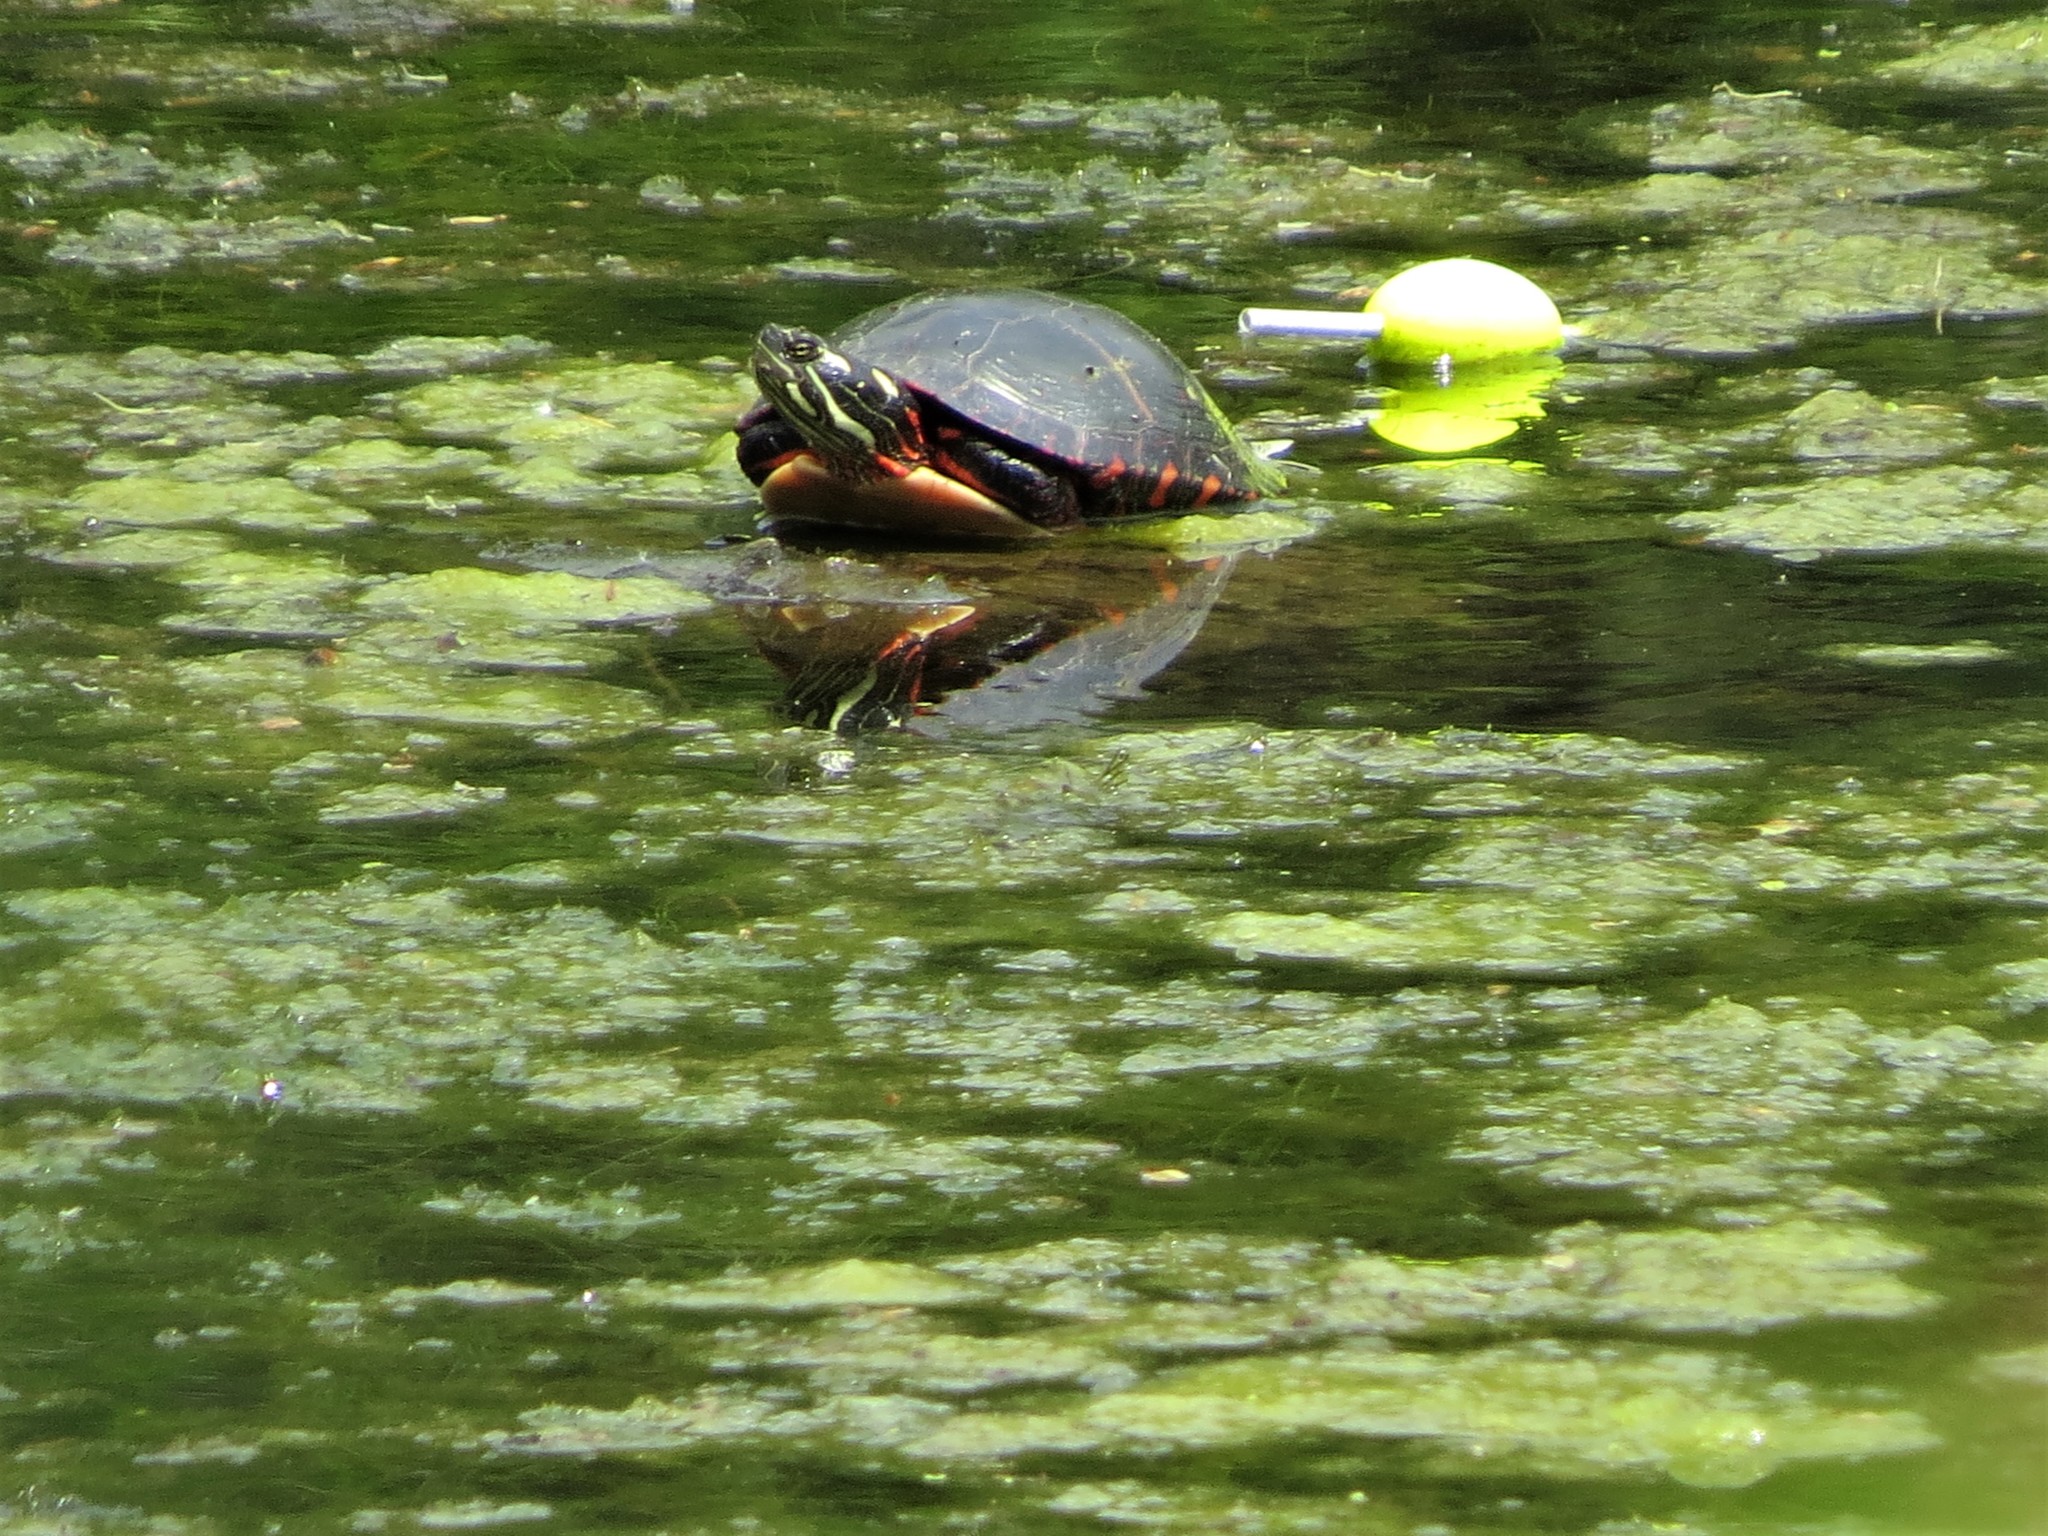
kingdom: Animalia
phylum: Chordata
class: Testudines
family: Emydidae
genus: Chrysemys
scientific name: Chrysemys picta
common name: Painted turtle
